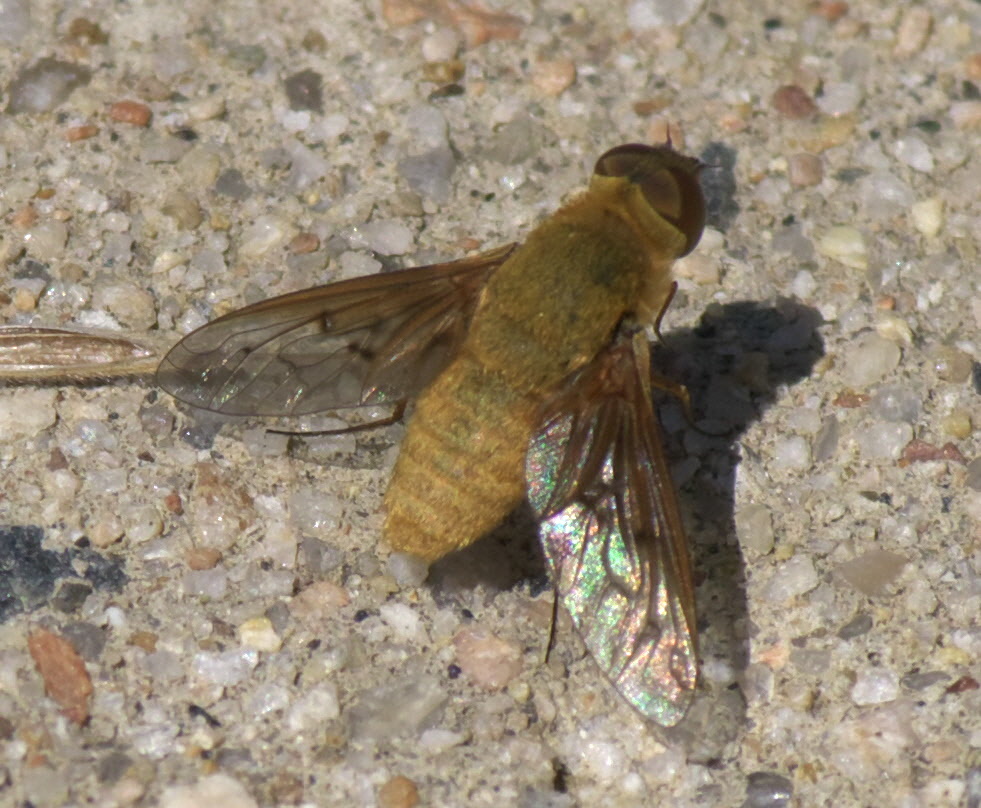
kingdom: Animalia
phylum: Arthropoda
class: Insecta
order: Diptera
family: Bombyliidae
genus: Chrysanthrax
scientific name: Chrysanthrax edititius
